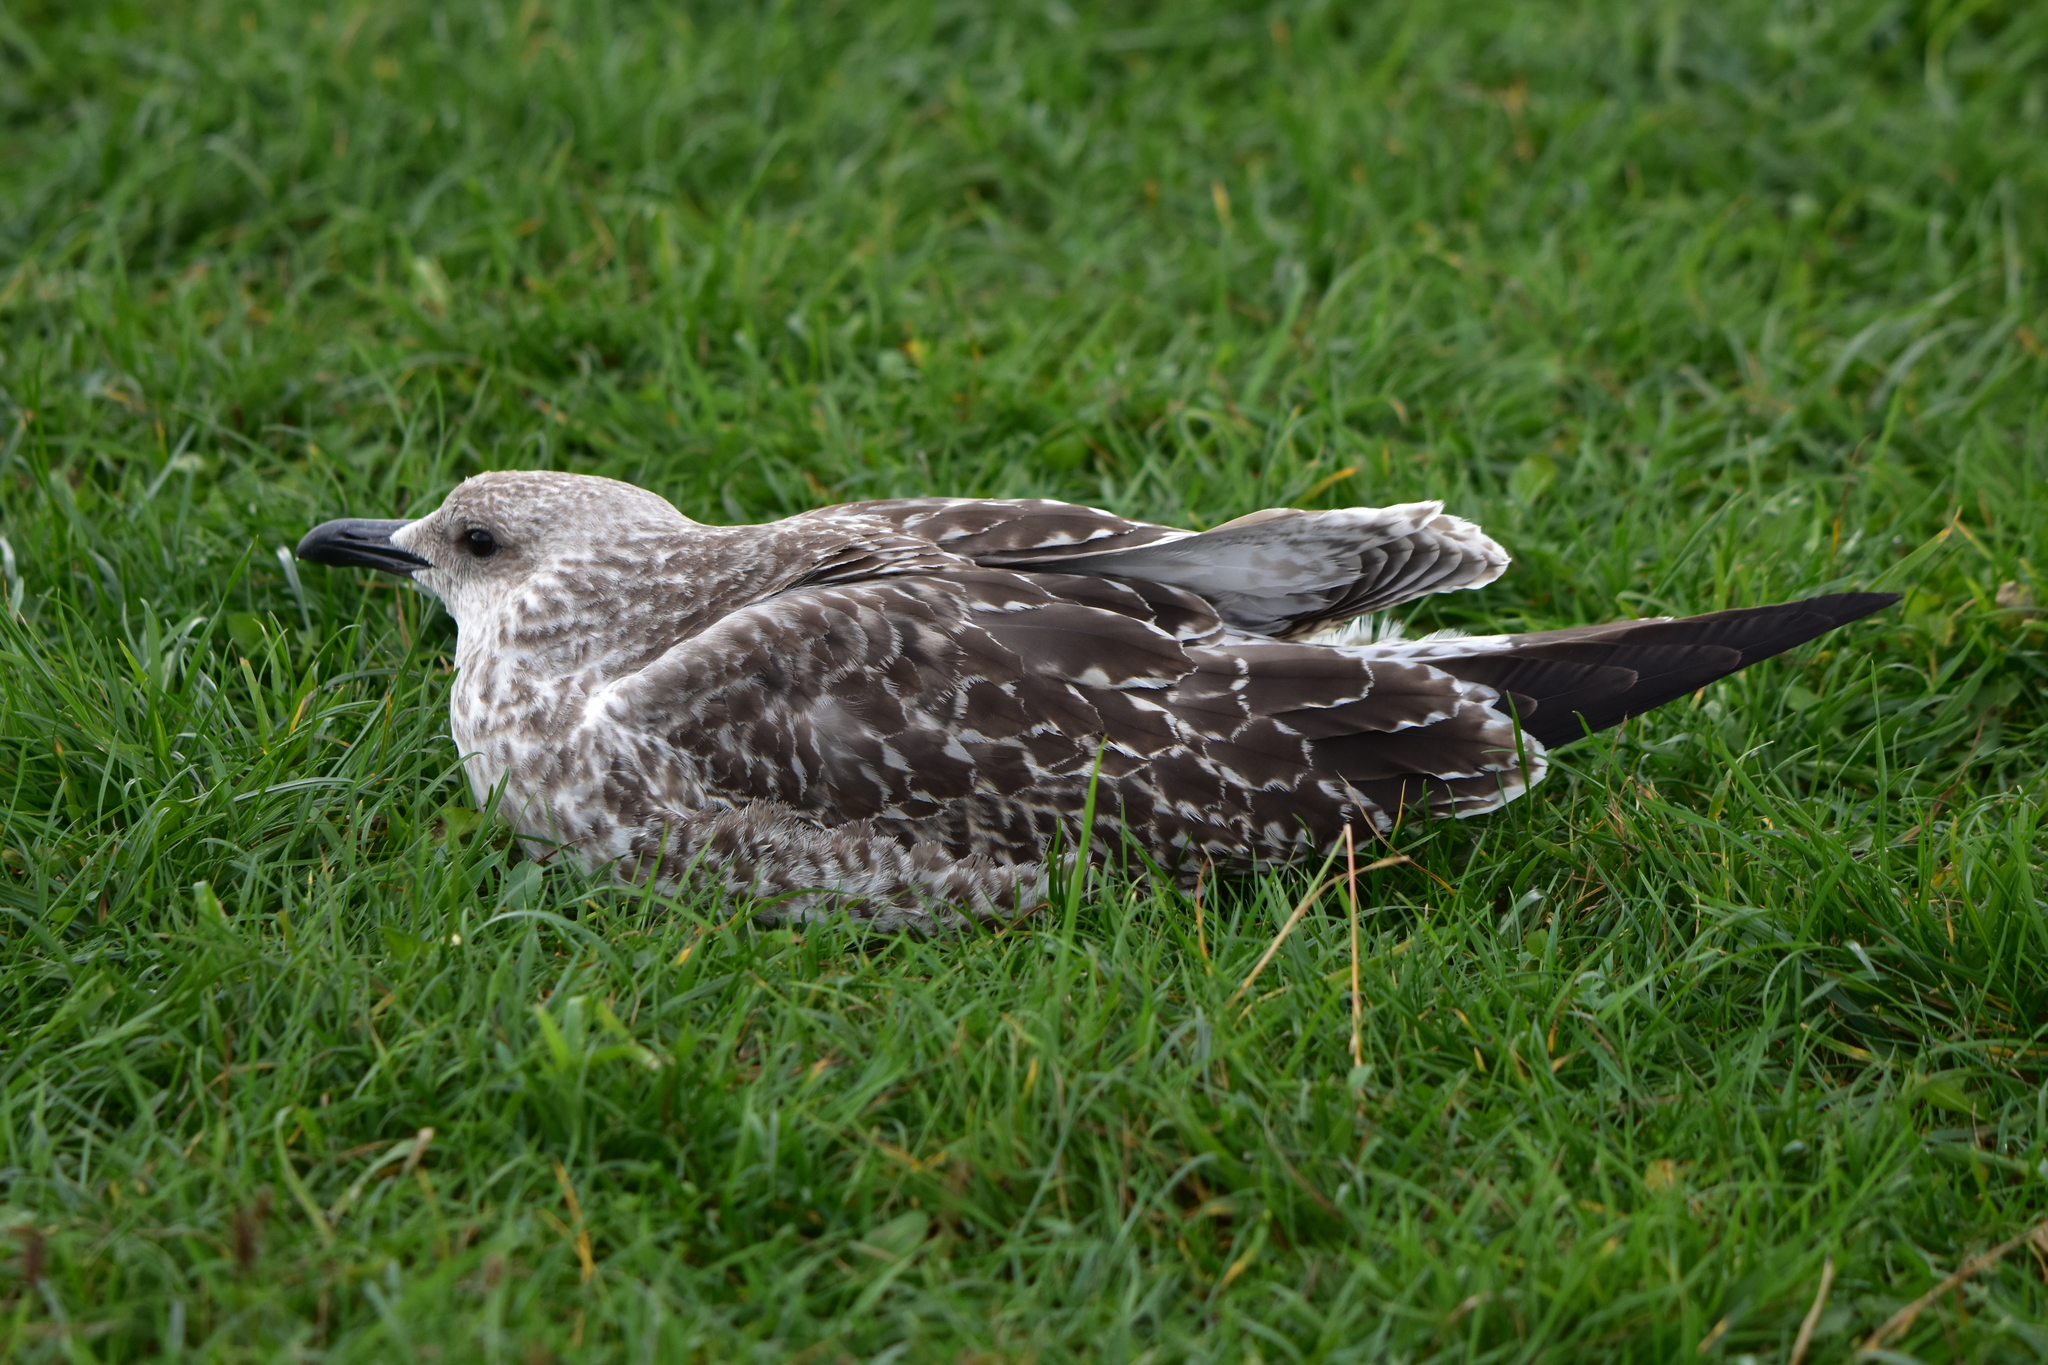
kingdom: Animalia
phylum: Chordata
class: Aves
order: Charadriiformes
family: Laridae
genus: Larus
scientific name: Larus fuscus
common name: Lesser black-backed gull
